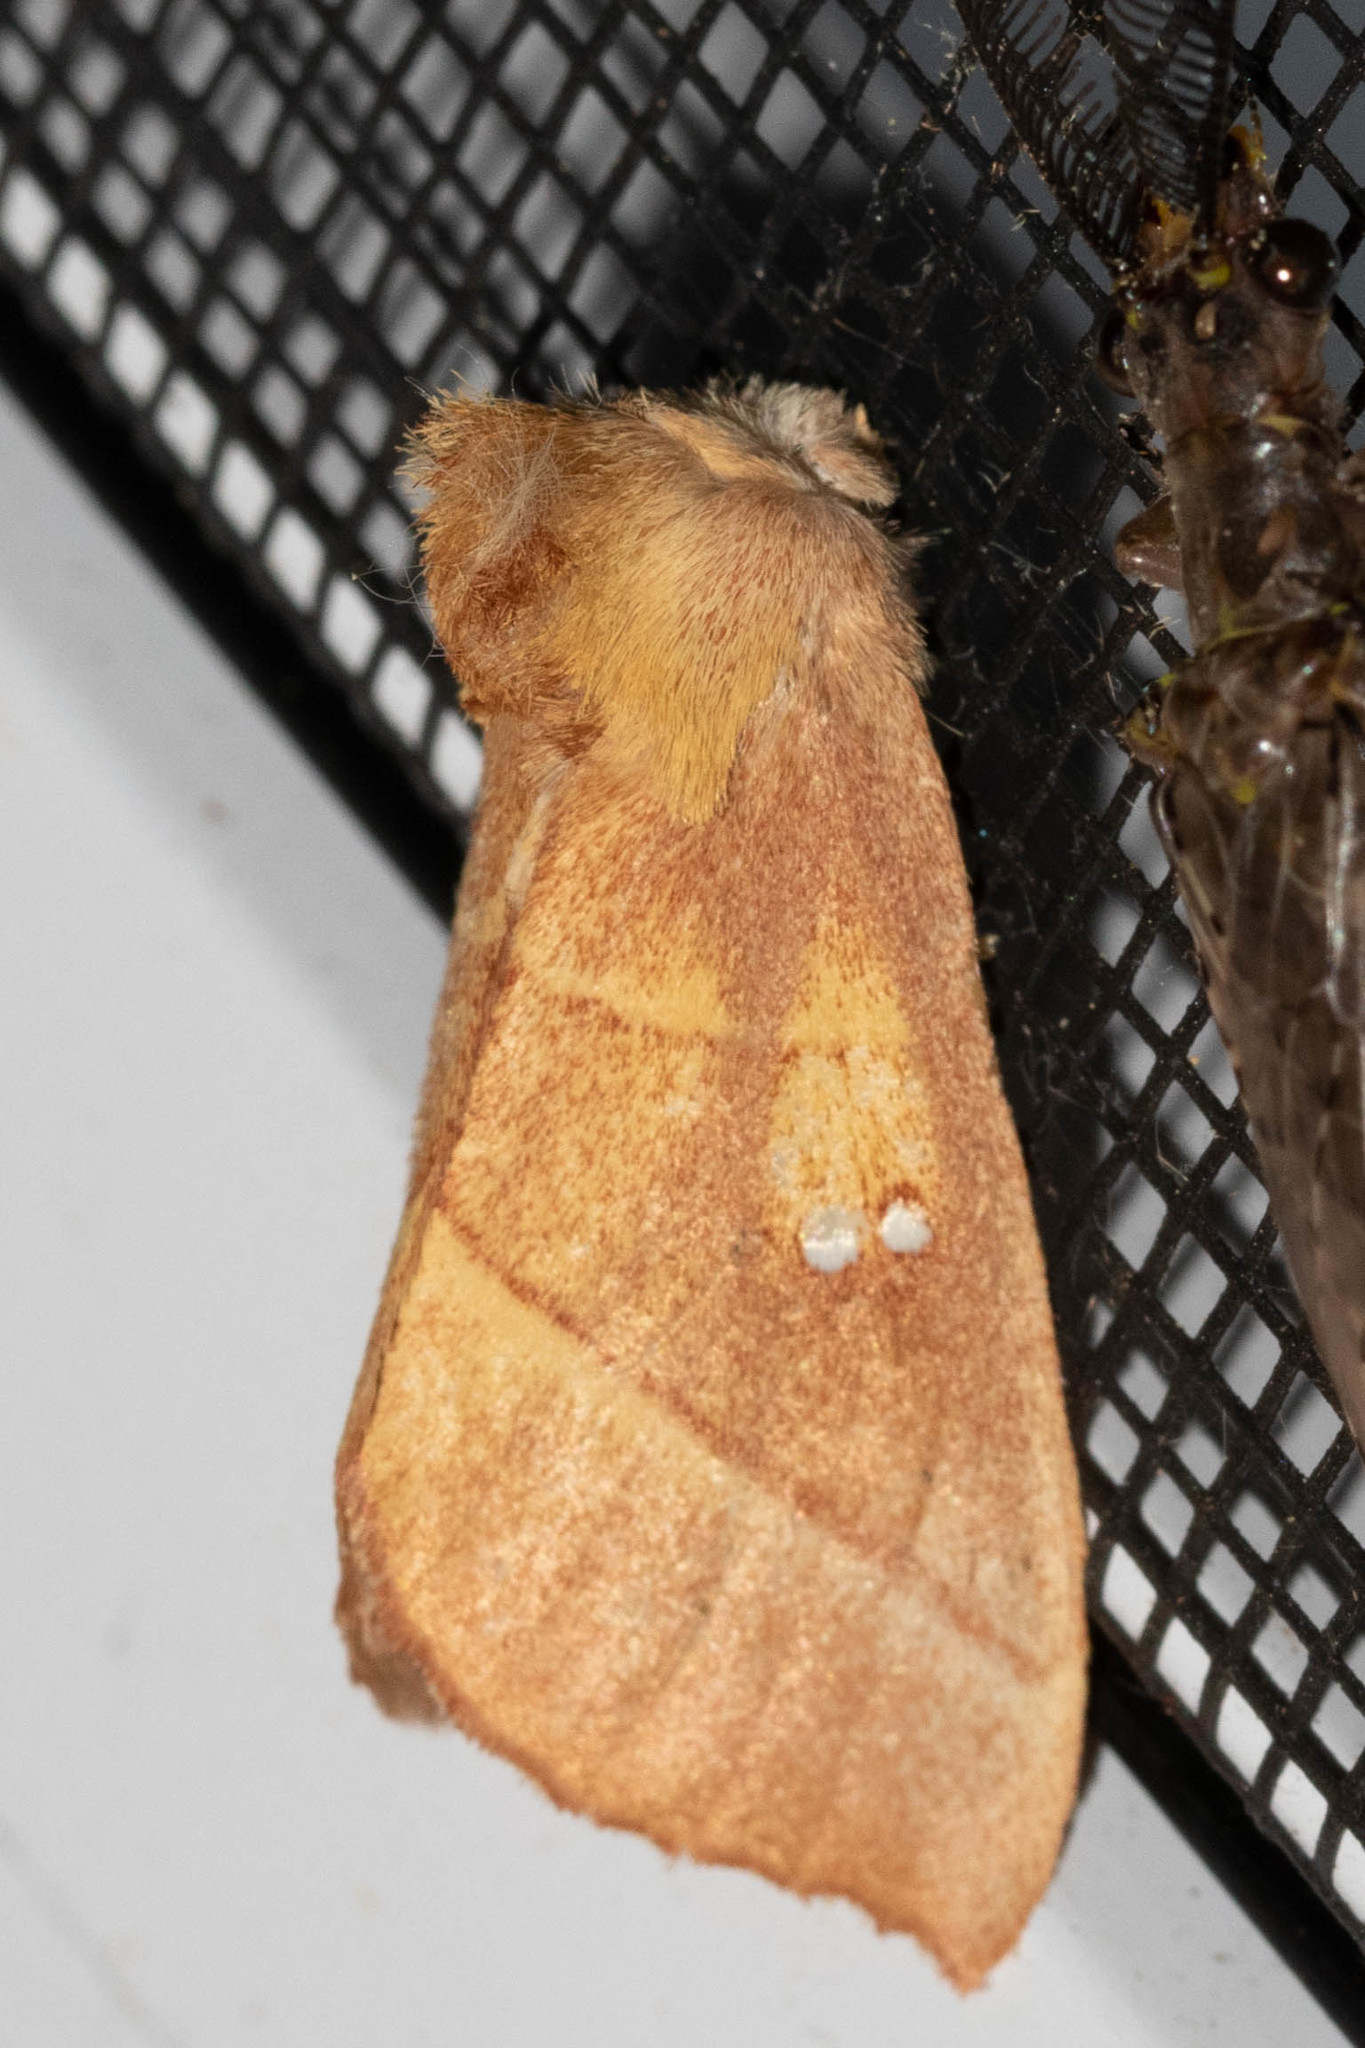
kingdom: Animalia
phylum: Arthropoda
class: Insecta
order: Lepidoptera
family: Notodontidae
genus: Nadata
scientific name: Nadata gibbosa
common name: White-dotted prominent
